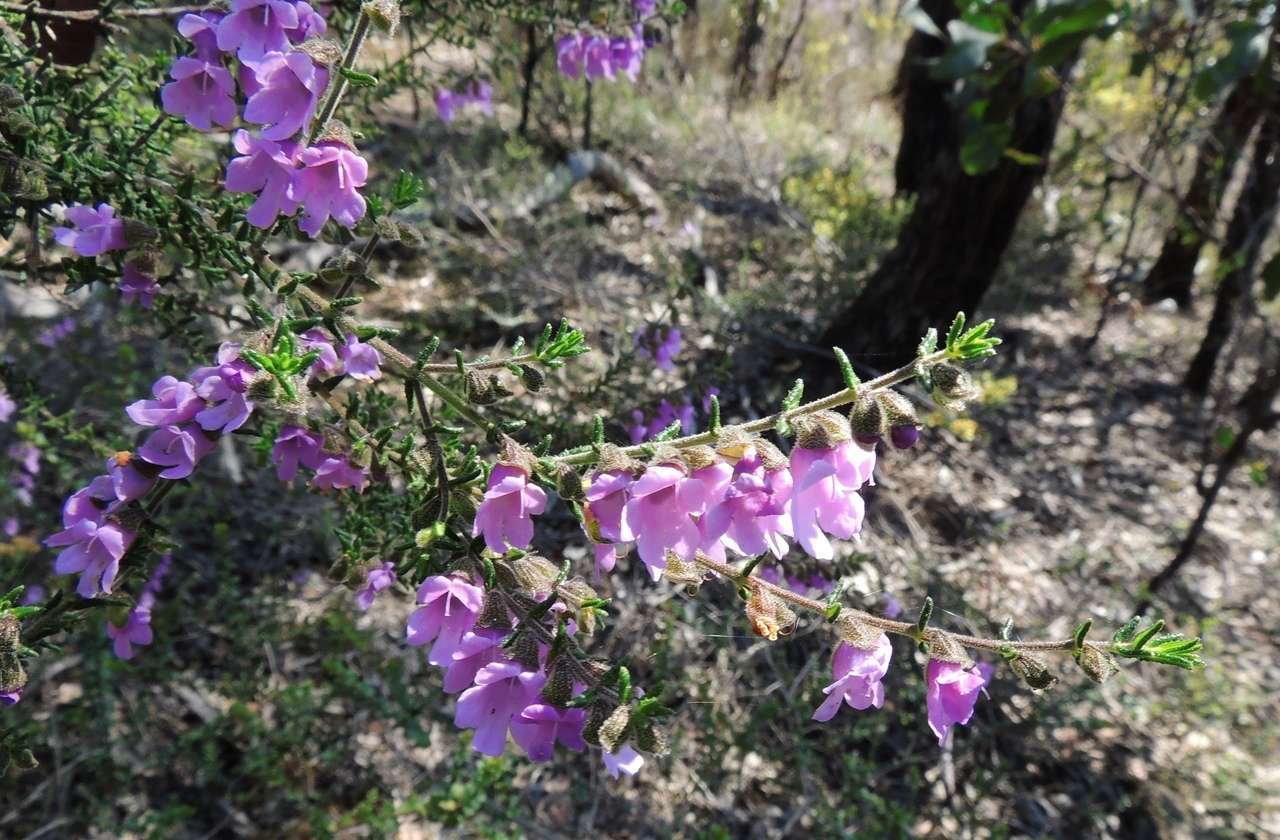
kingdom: Plantae
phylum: Tracheophyta
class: Magnoliopsida
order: Lamiales
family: Lamiaceae
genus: Prostanthera
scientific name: Prostanthera decussata
